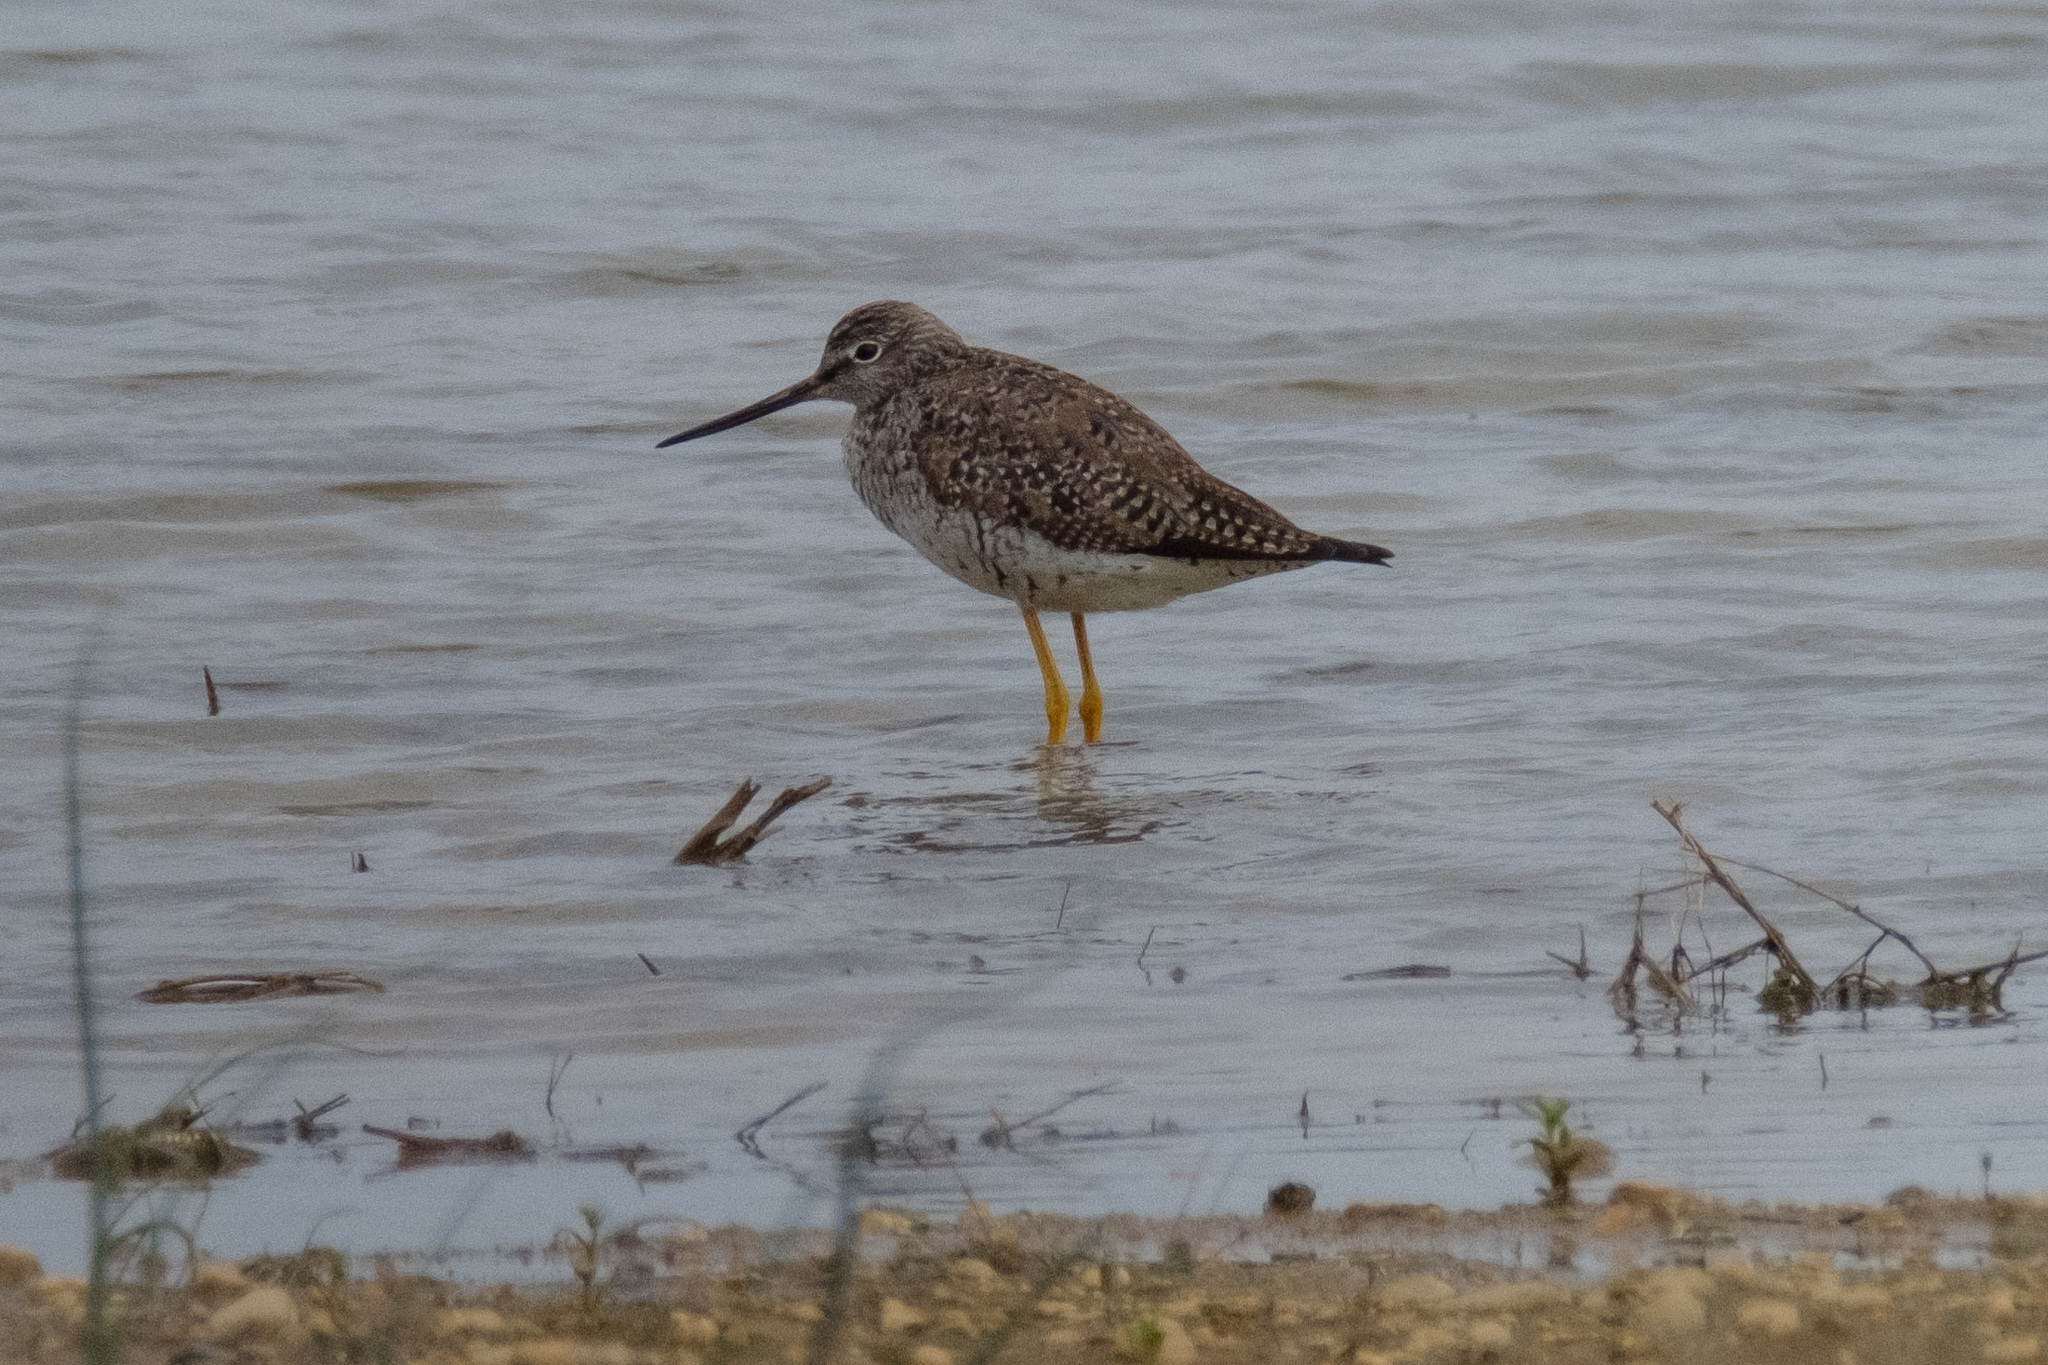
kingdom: Animalia
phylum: Chordata
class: Aves
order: Charadriiformes
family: Scolopacidae
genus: Tringa
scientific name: Tringa melanoleuca
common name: Greater yellowlegs
